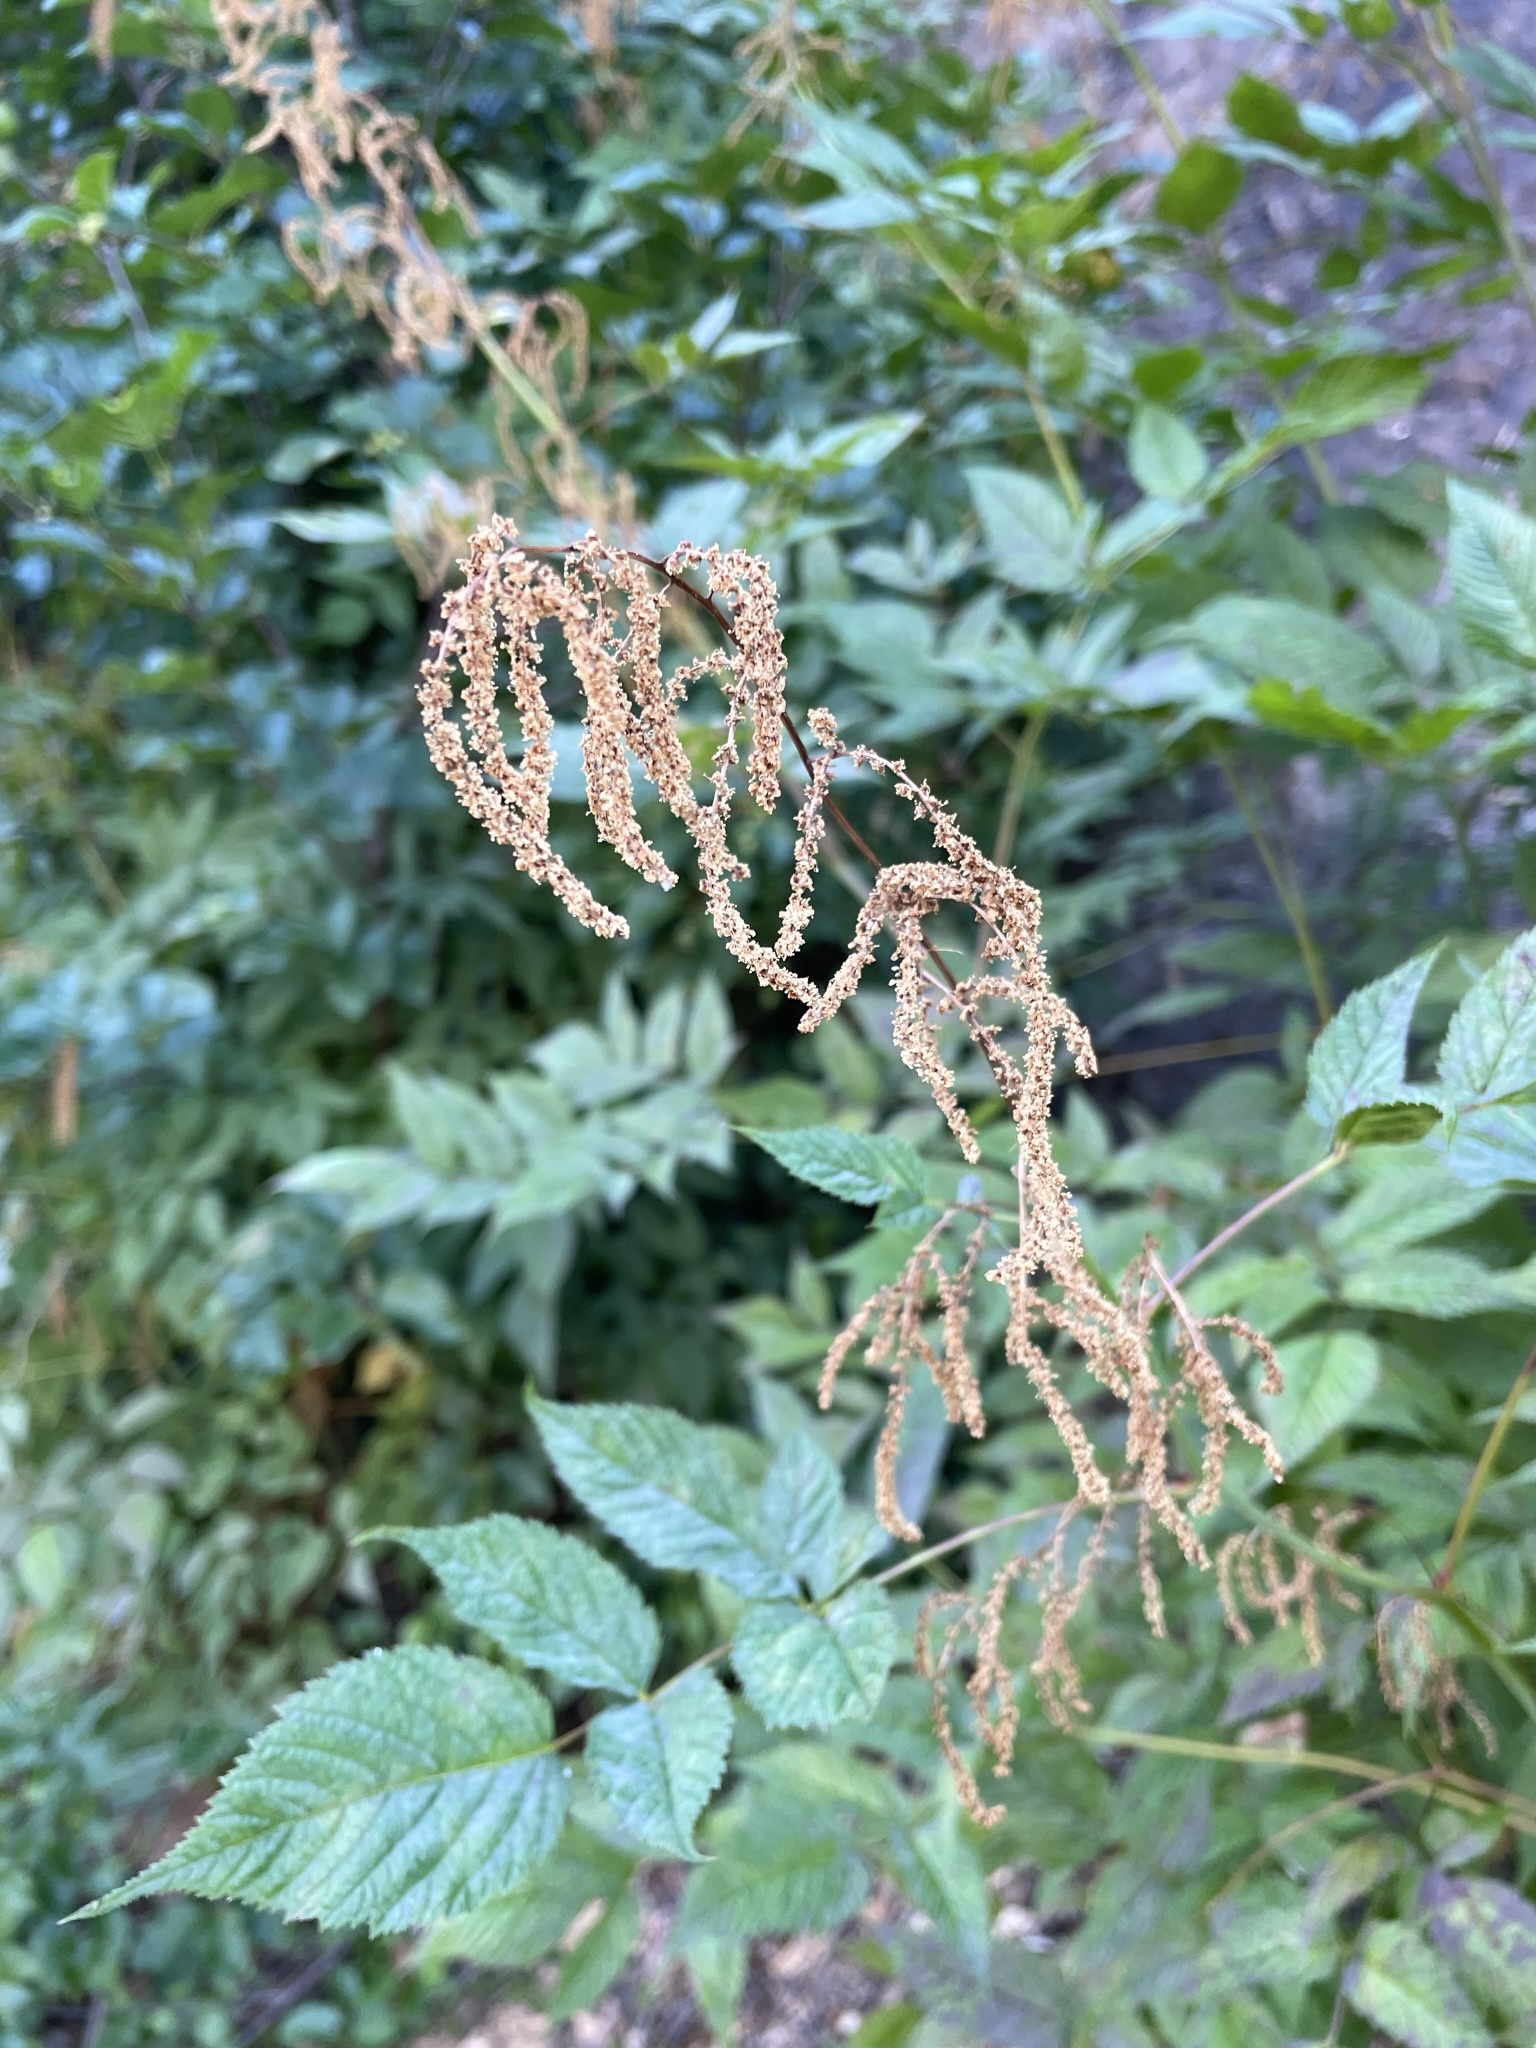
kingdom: Plantae
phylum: Tracheophyta
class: Magnoliopsida
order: Rosales
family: Rosaceae
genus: Aruncus
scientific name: Aruncus dioicus
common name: Buck's-beard
